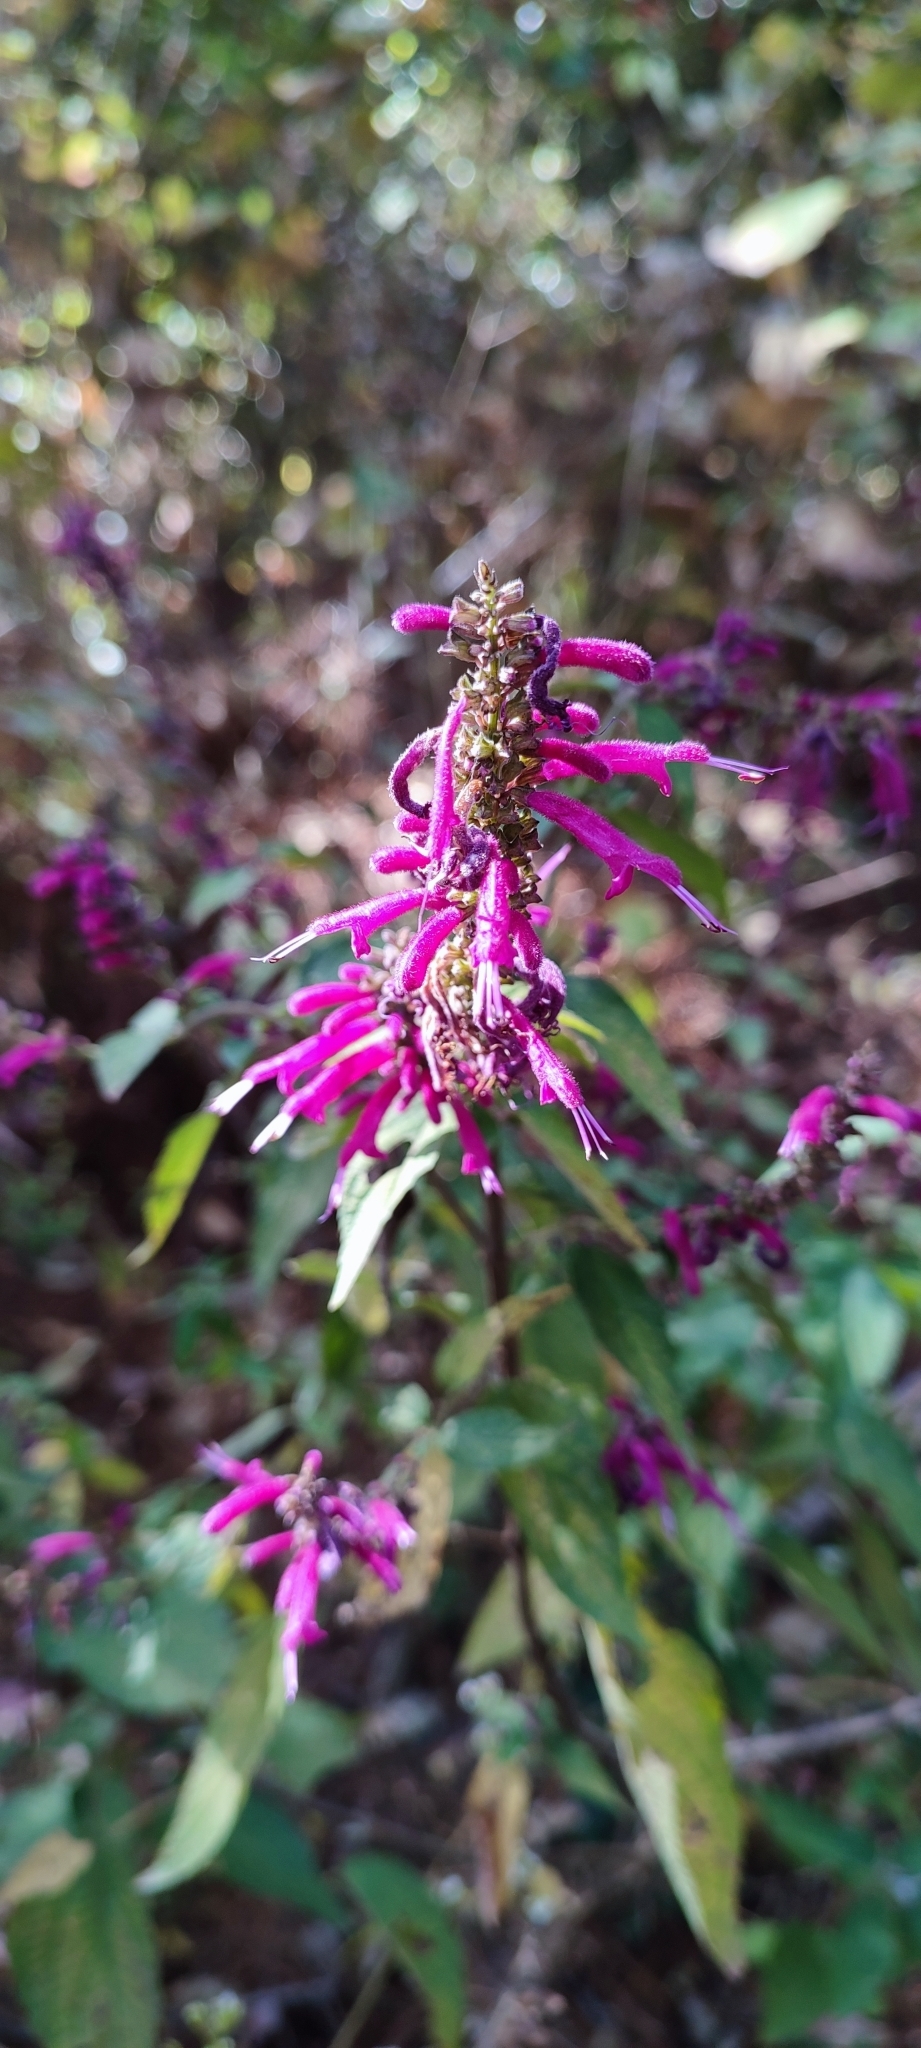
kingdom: Plantae
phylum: Tracheophyta
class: Magnoliopsida
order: Lamiales
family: Lamiaceae
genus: Salvia
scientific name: Salvia iodantha
